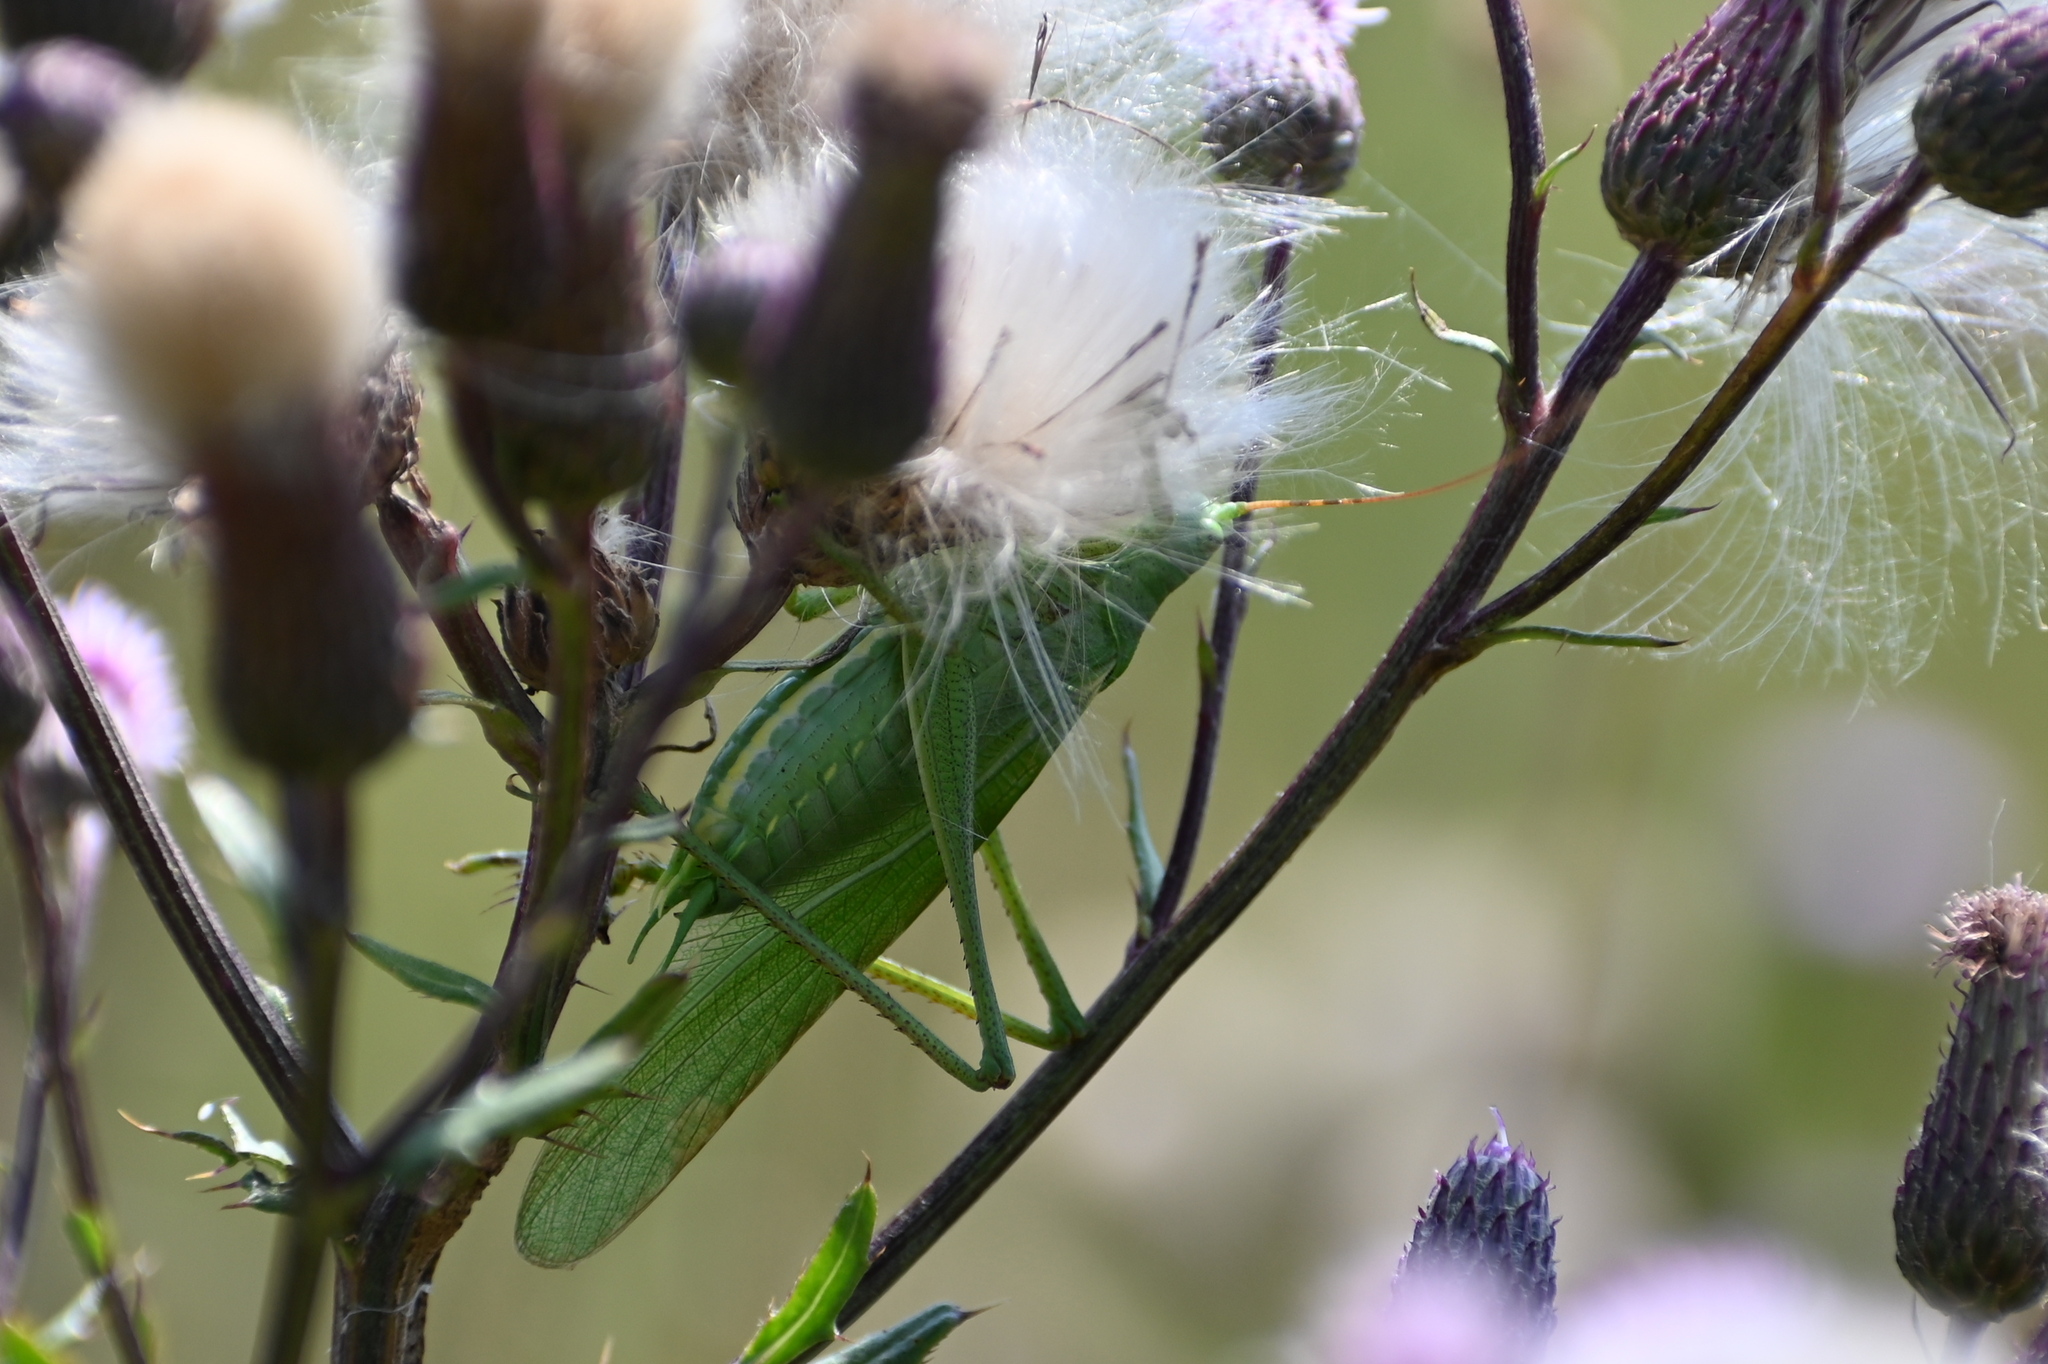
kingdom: Animalia
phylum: Arthropoda
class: Insecta
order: Orthoptera
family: Tettigoniidae
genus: Tettigonia
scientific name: Tettigonia viridissima
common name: Great green bush-cricket
